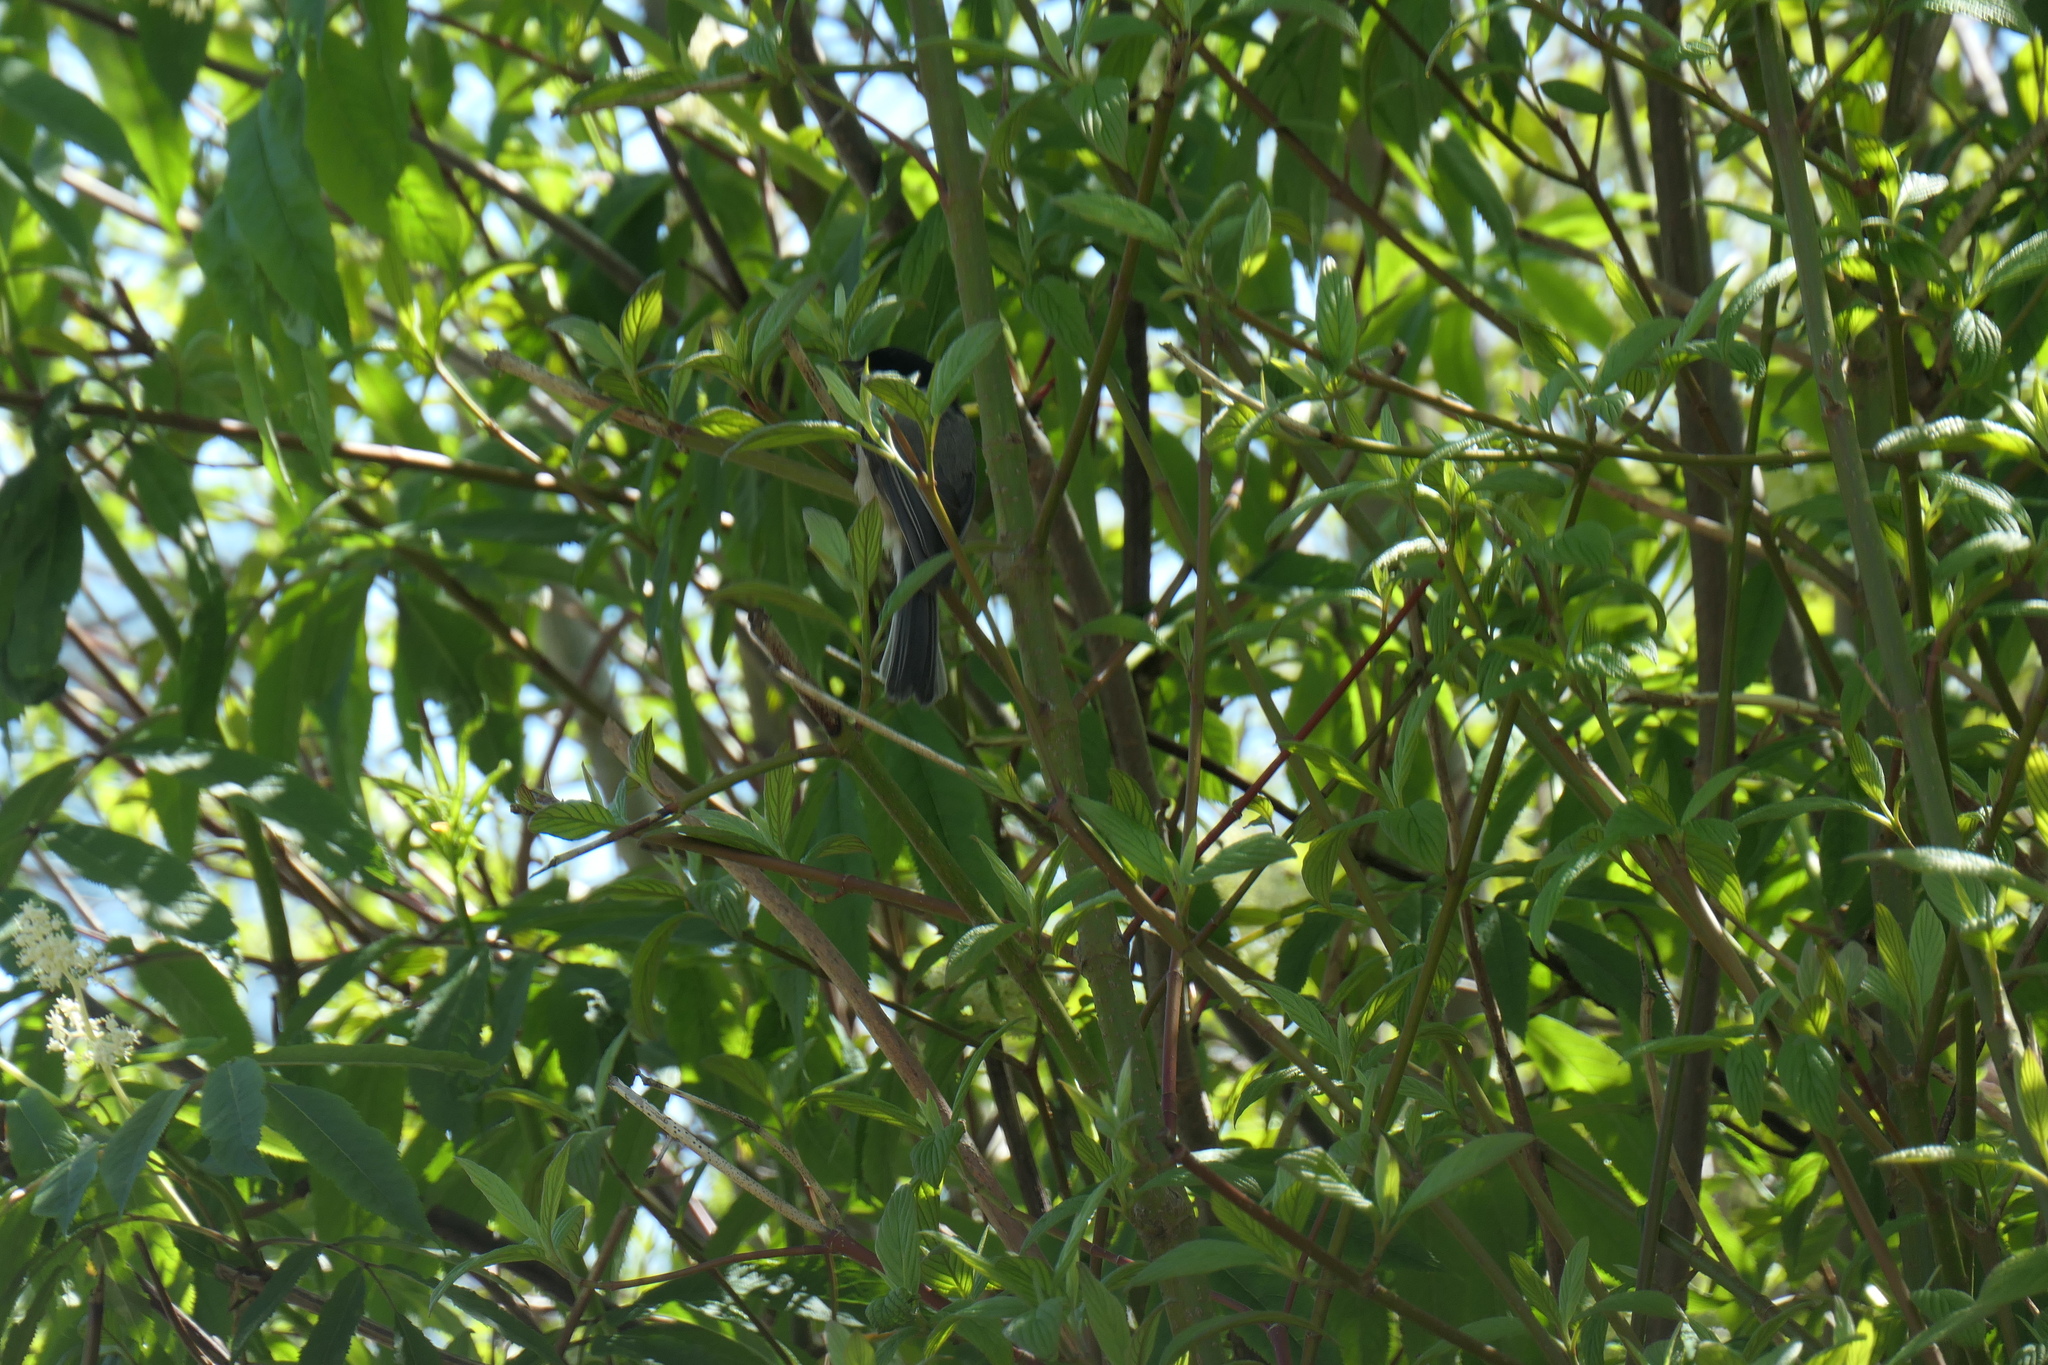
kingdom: Animalia
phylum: Chordata
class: Aves
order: Passeriformes
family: Paridae
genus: Poecile
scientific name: Poecile atricapillus
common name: Black-capped chickadee
